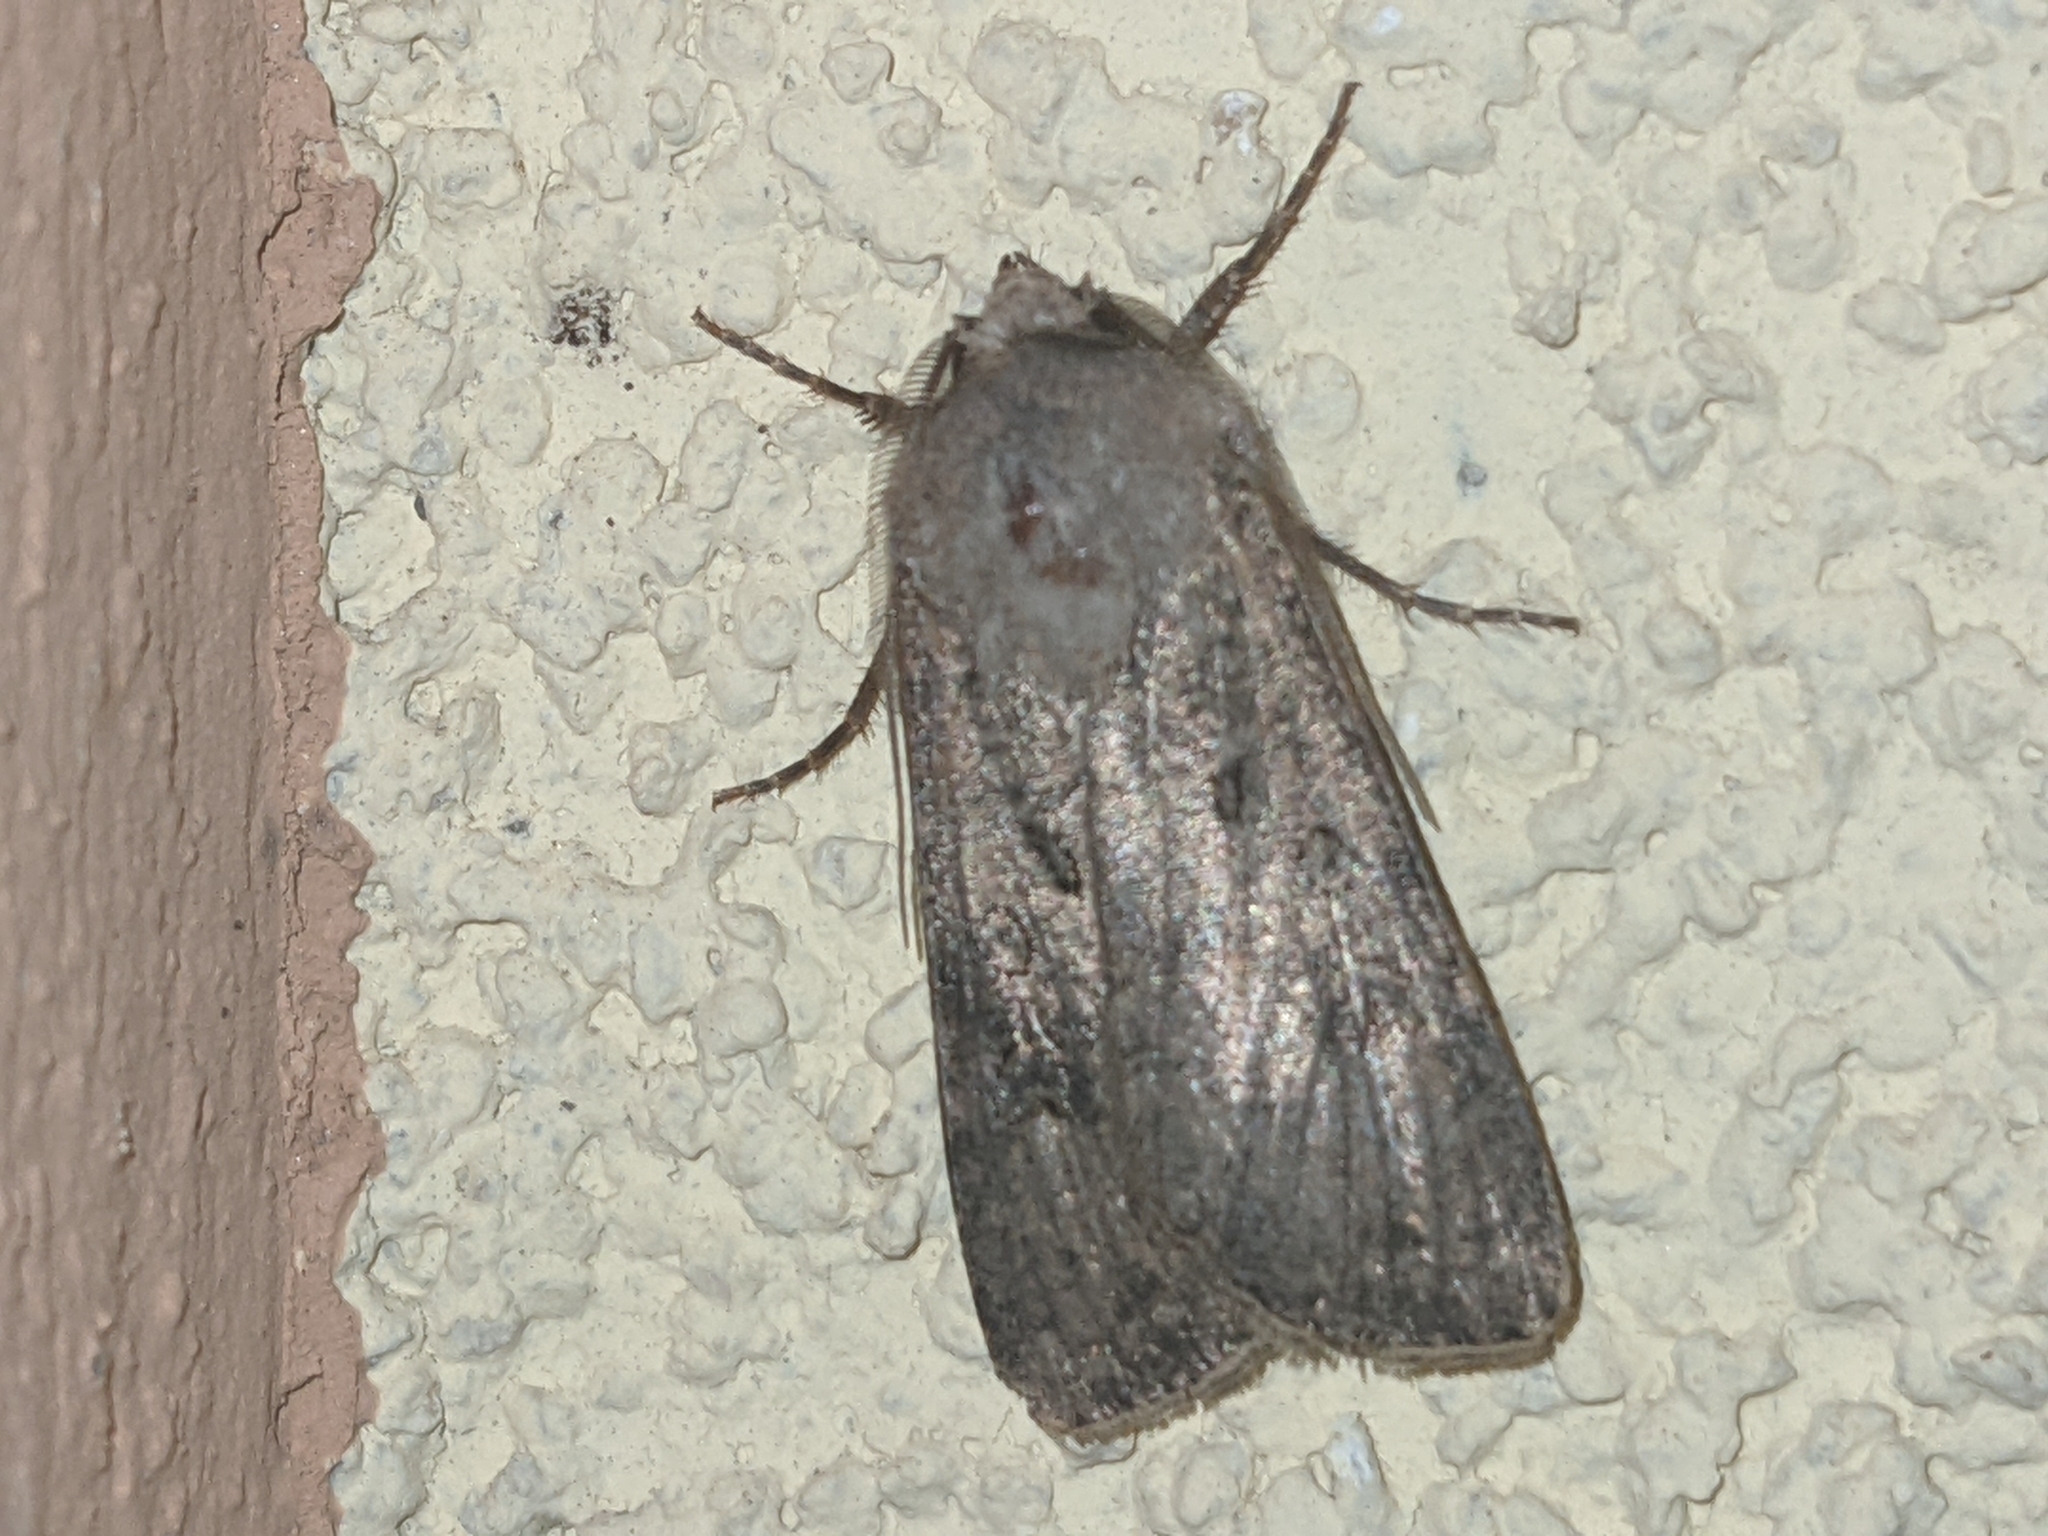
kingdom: Animalia
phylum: Arthropoda
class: Insecta
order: Lepidoptera
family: Noctuidae
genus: Agrotis
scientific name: Agrotis segetum
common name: Turnip moth
